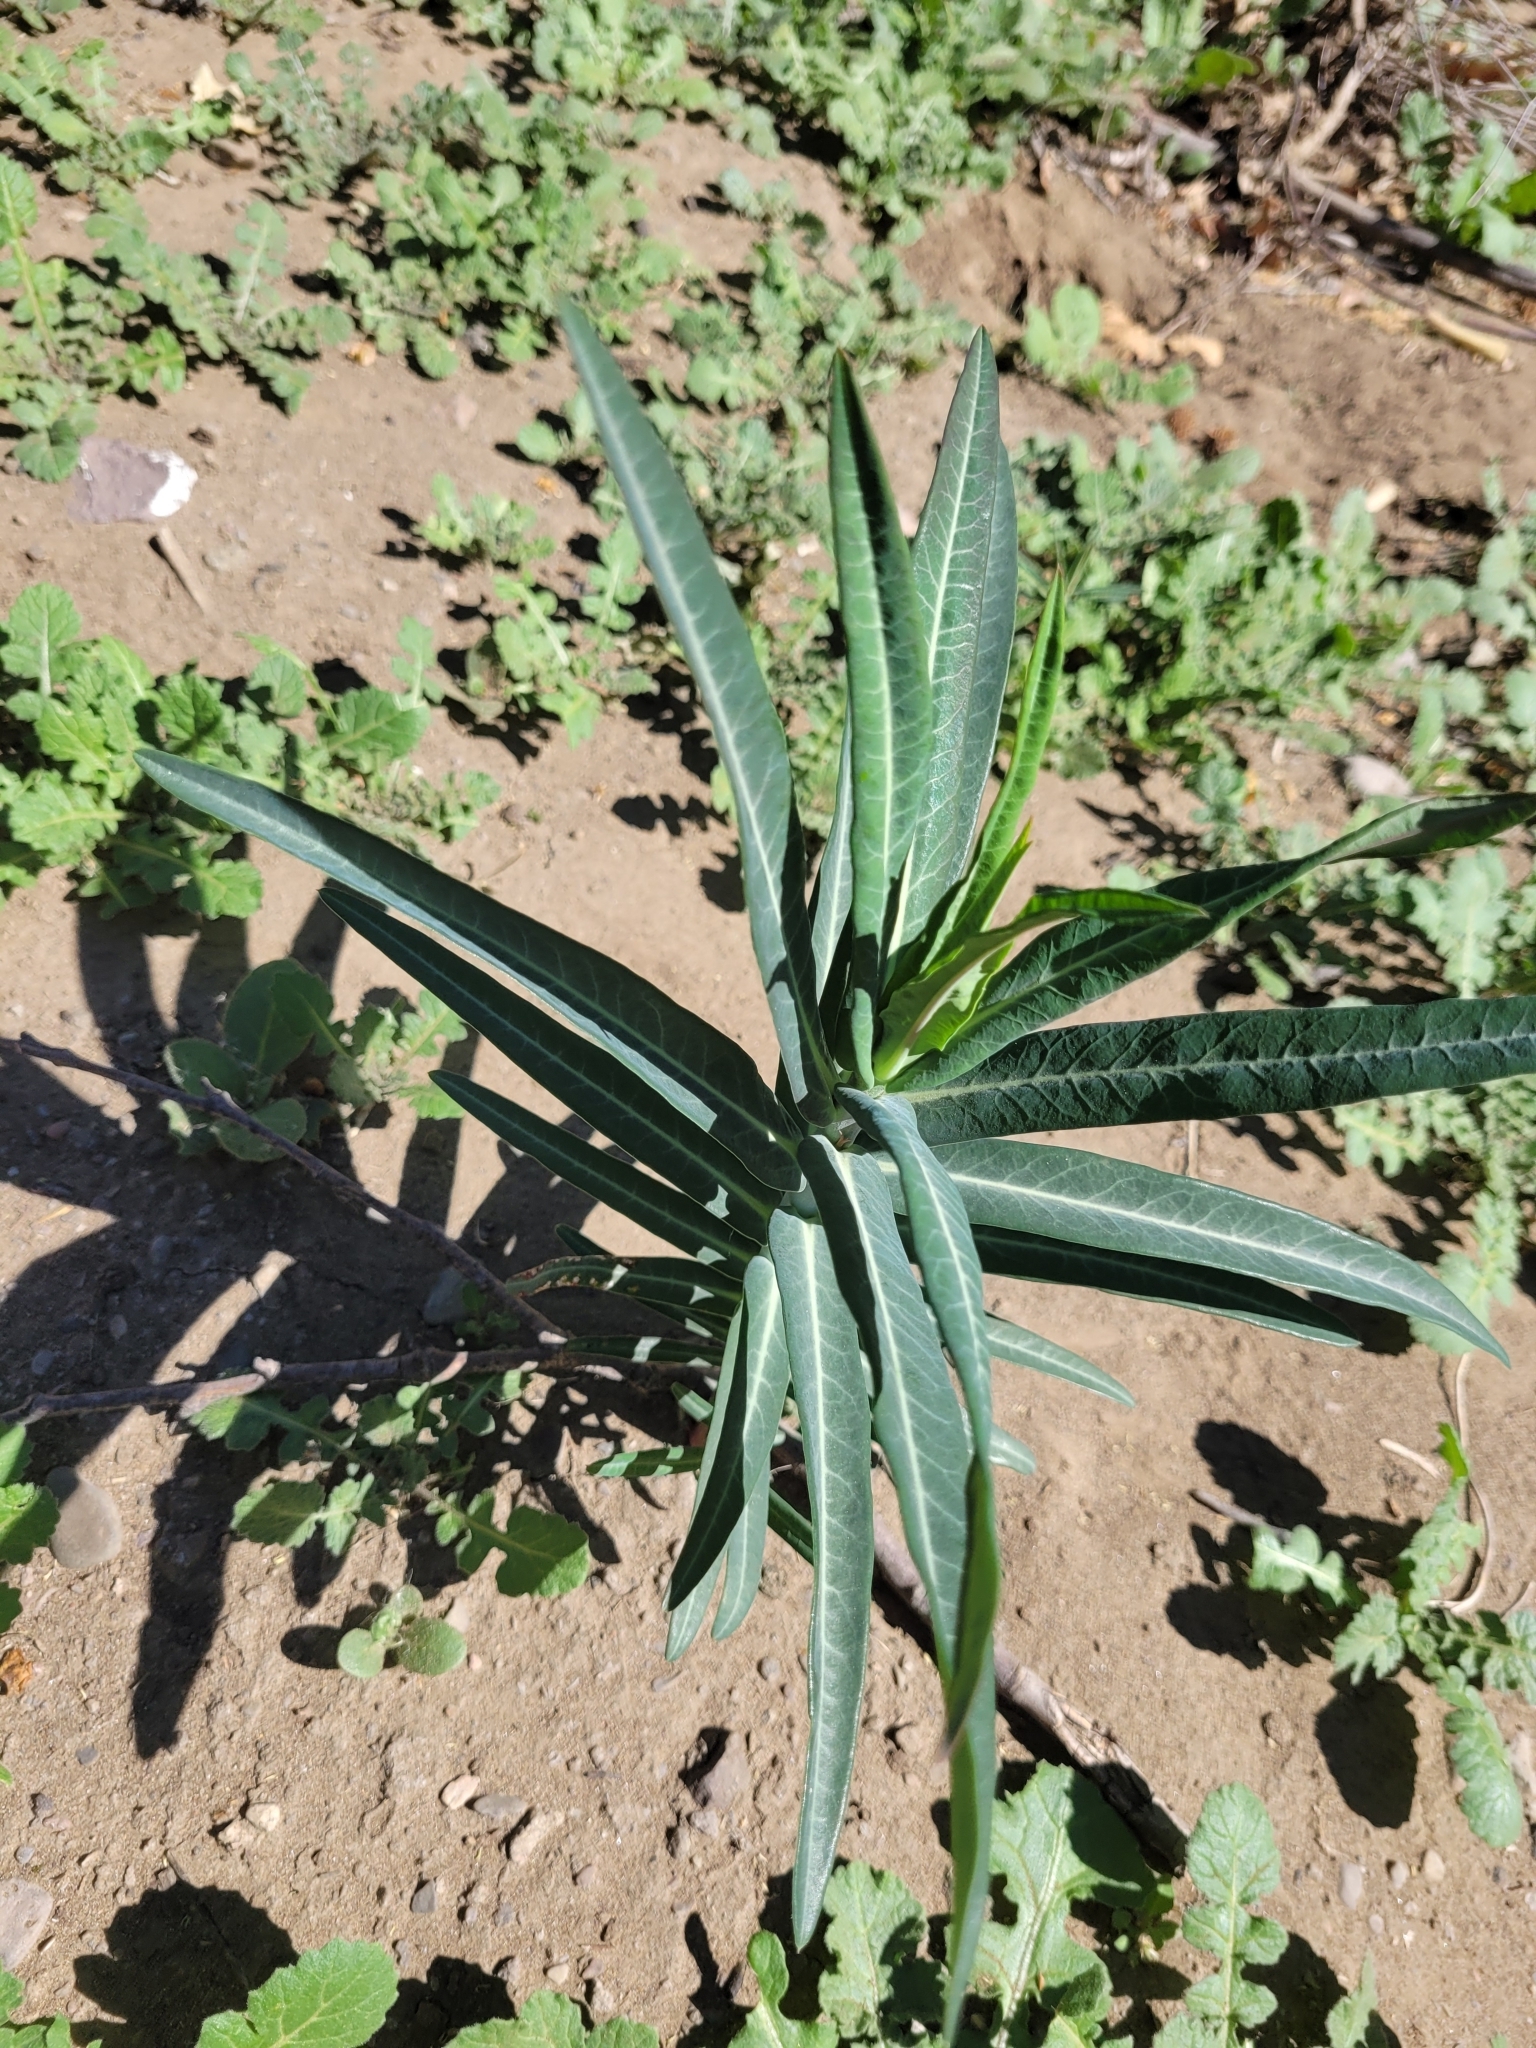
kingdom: Plantae
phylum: Tracheophyta
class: Magnoliopsida
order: Malpighiales
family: Euphorbiaceae
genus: Euphorbia
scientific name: Euphorbia lathyris
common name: Caper spurge
